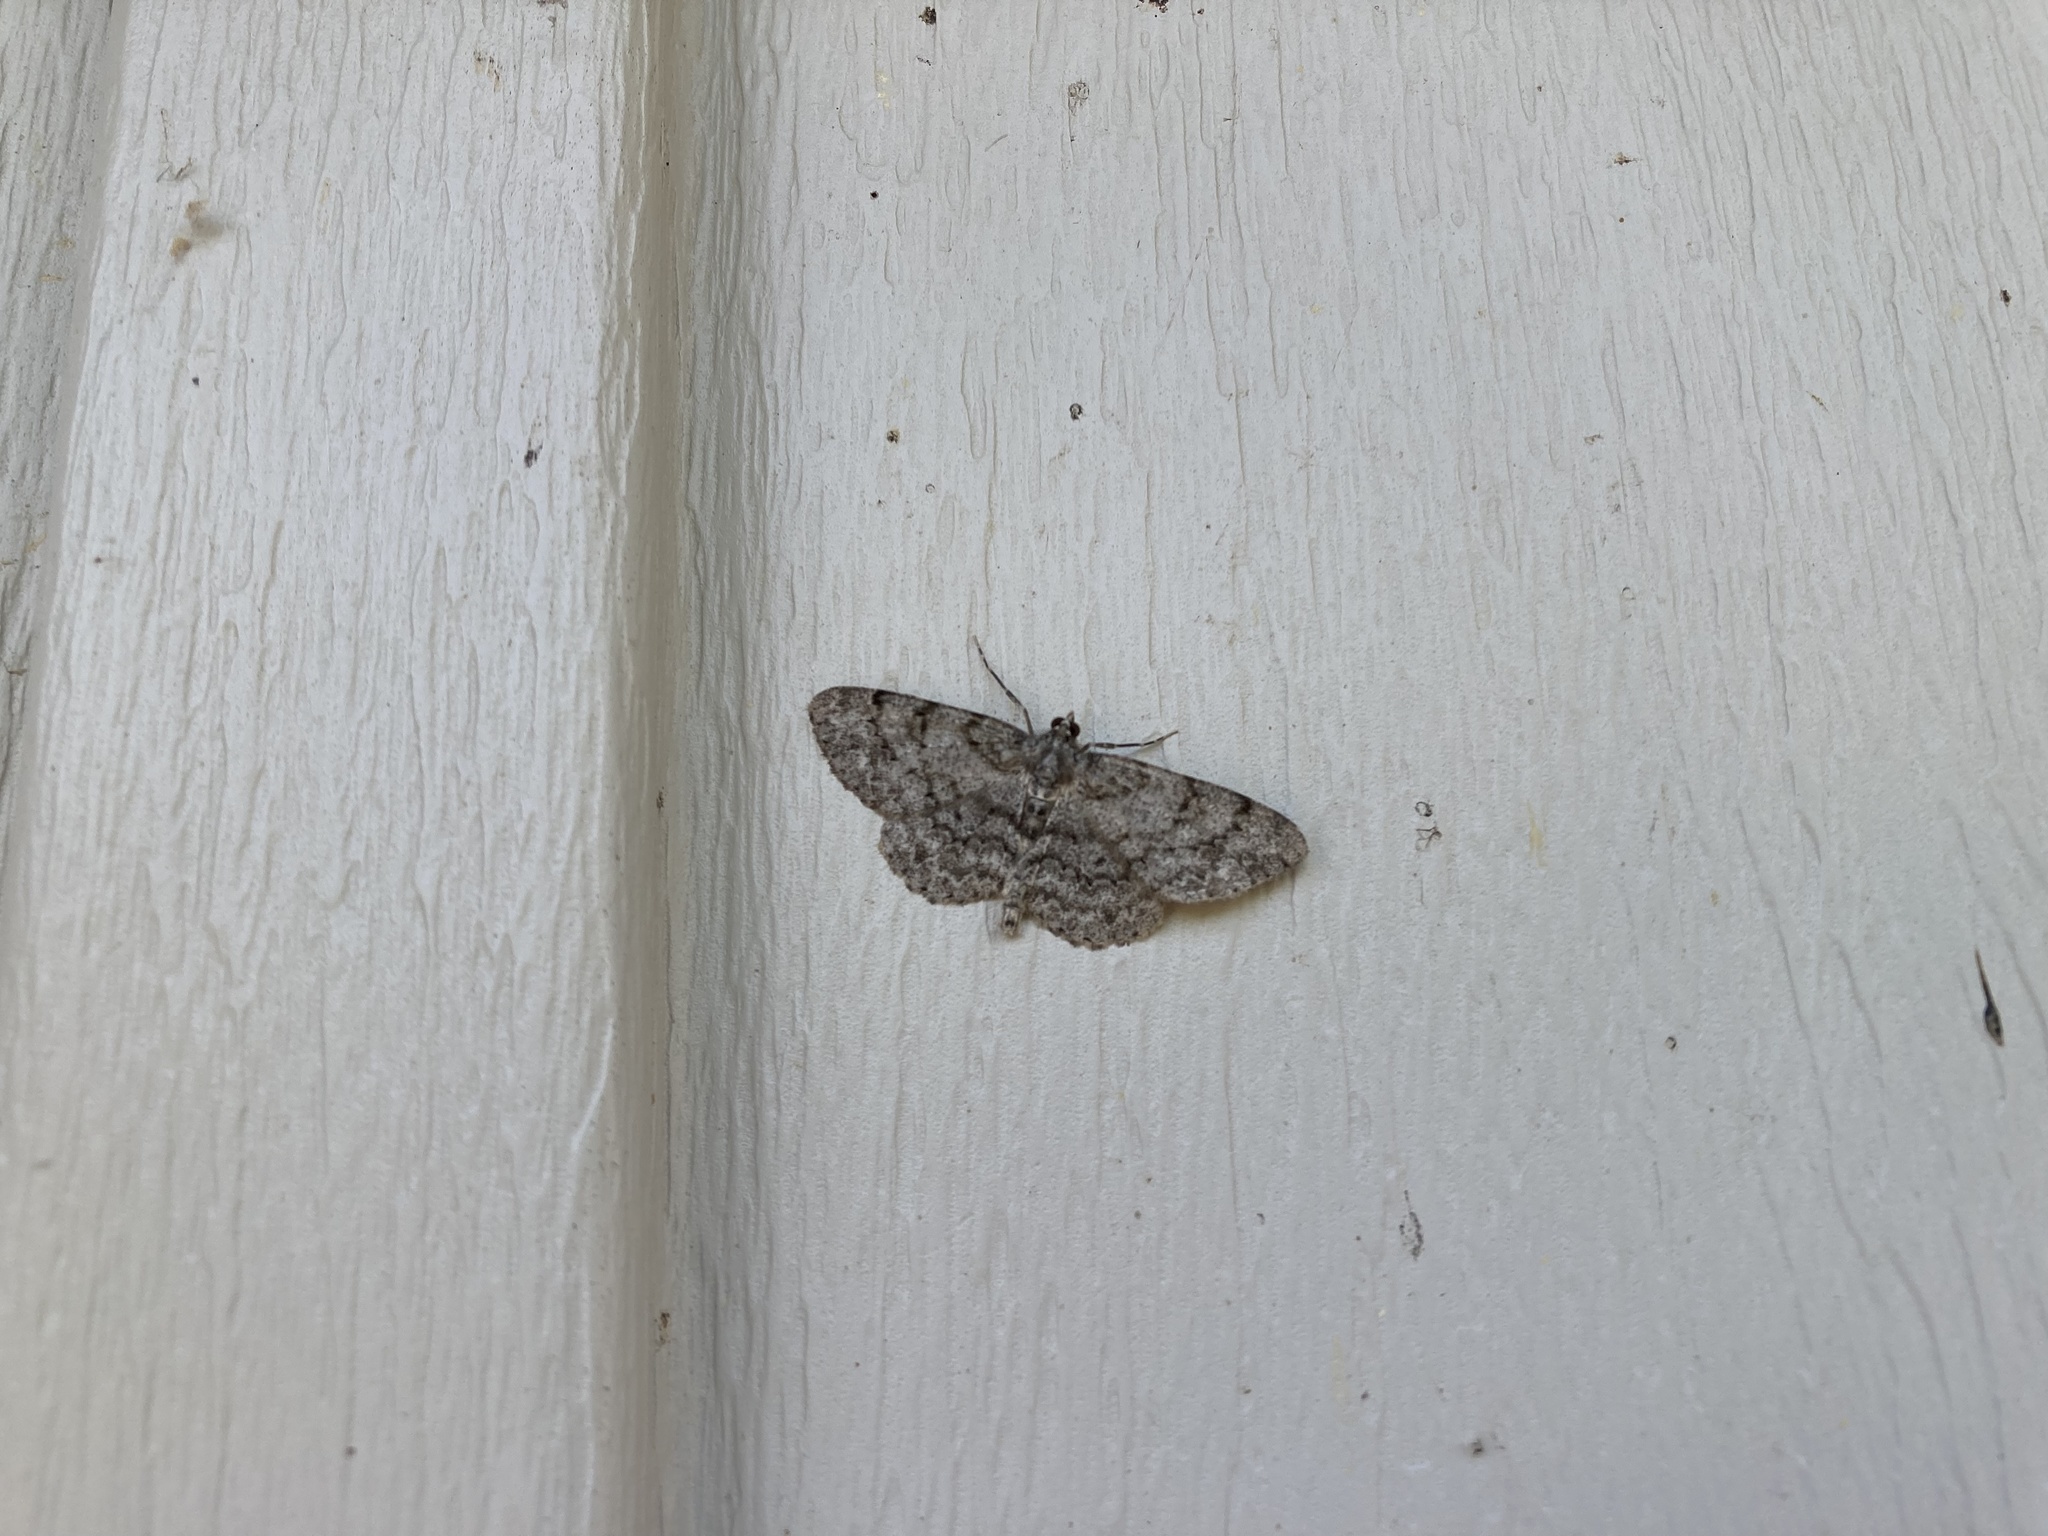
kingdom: Animalia
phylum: Arthropoda
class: Insecta
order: Lepidoptera
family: Geometridae
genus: Protoboarmia
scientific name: Protoboarmia porcelaria
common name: Porcelain gray
